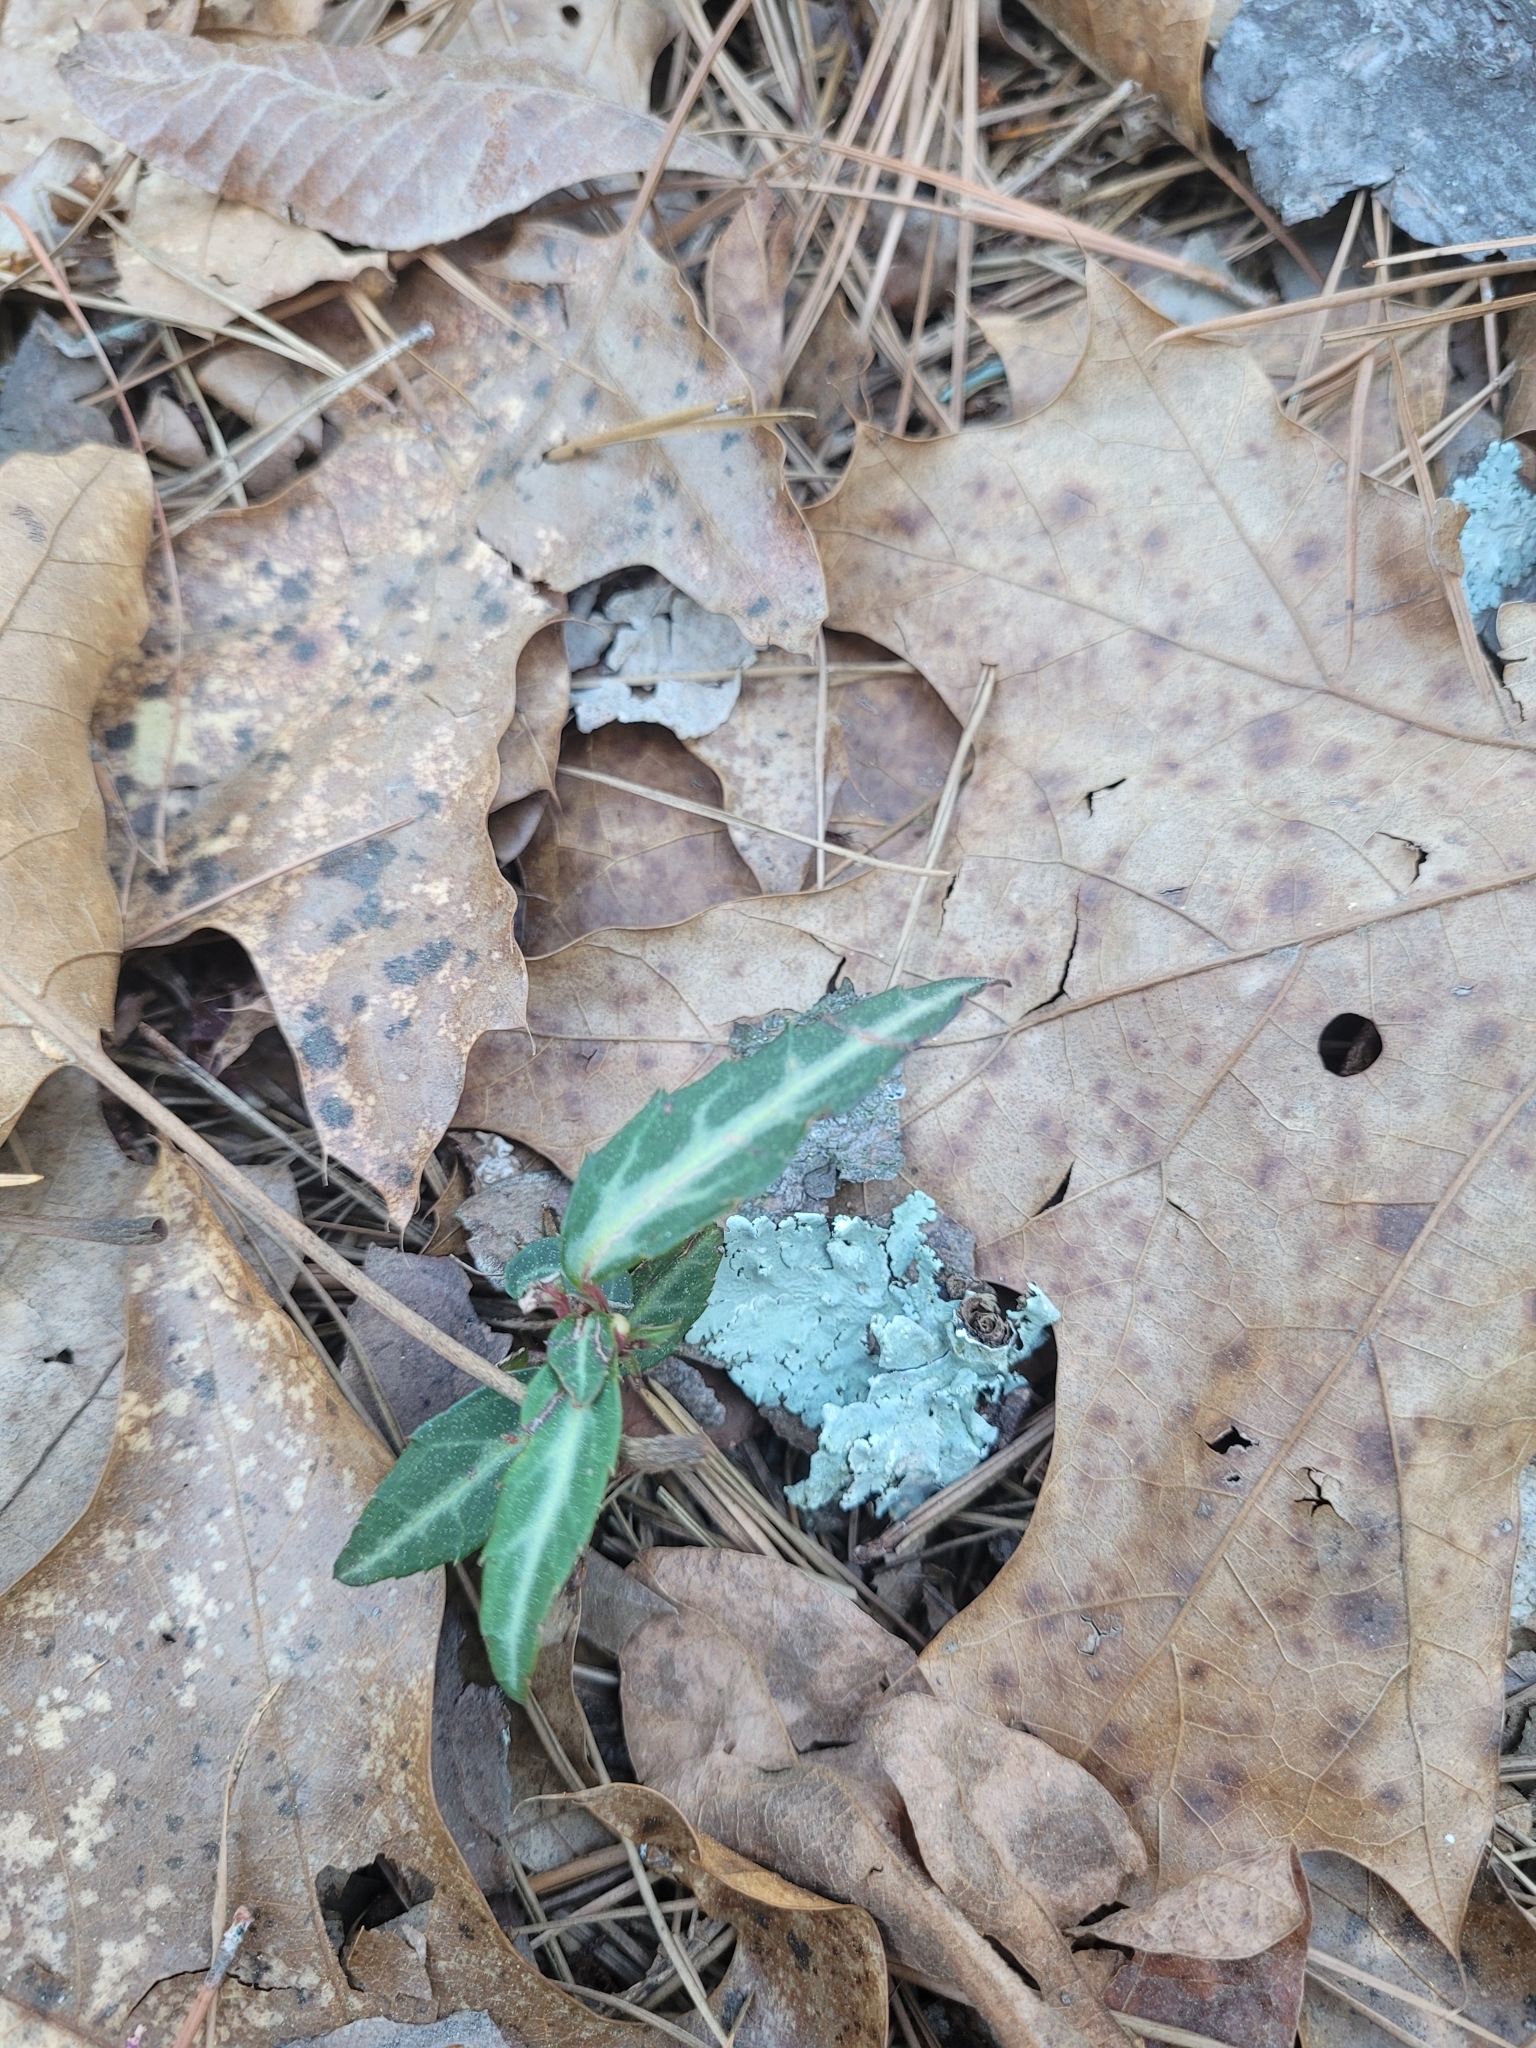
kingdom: Plantae
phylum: Tracheophyta
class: Magnoliopsida
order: Ericales
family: Ericaceae
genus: Chimaphila
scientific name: Chimaphila maculata
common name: Spotted pipsissewa
